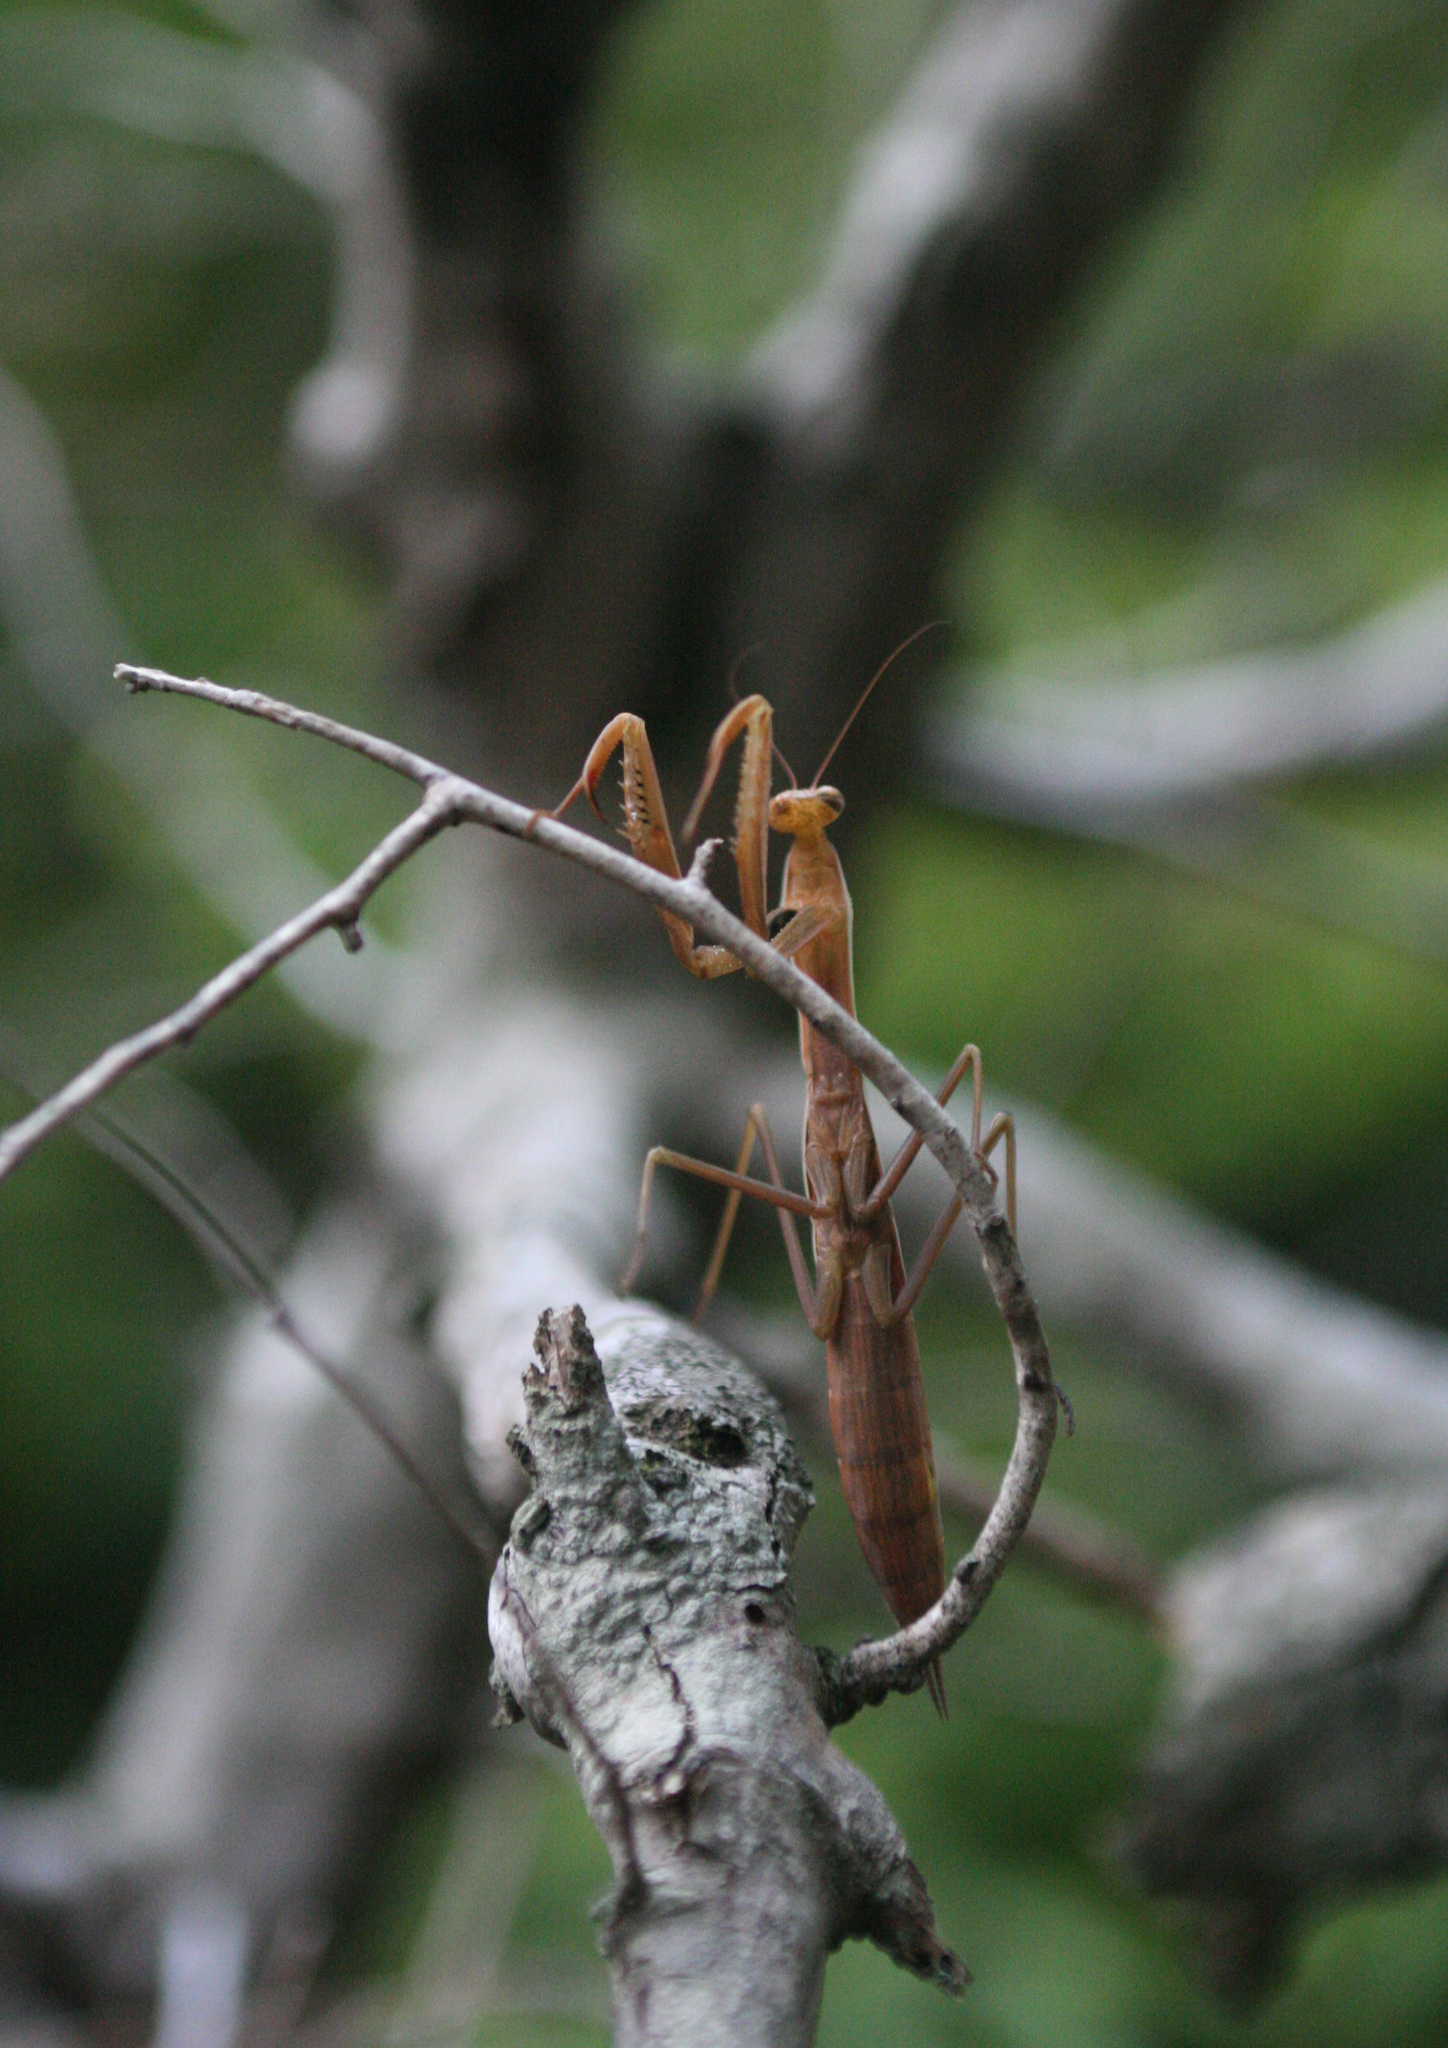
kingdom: Animalia
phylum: Arthropoda
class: Insecta
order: Mantodea
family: Mantidae
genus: Mantis
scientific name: Mantis religiosa
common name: Praying mantis
